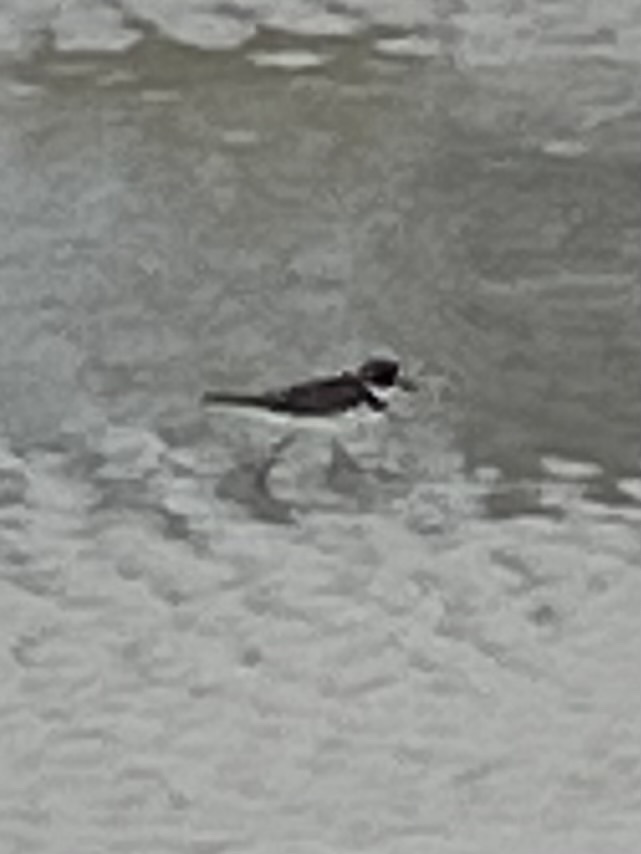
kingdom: Animalia
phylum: Chordata
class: Aves
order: Charadriiformes
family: Charadriidae
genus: Charadrius
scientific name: Charadrius semipalmatus
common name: Semipalmated plover
